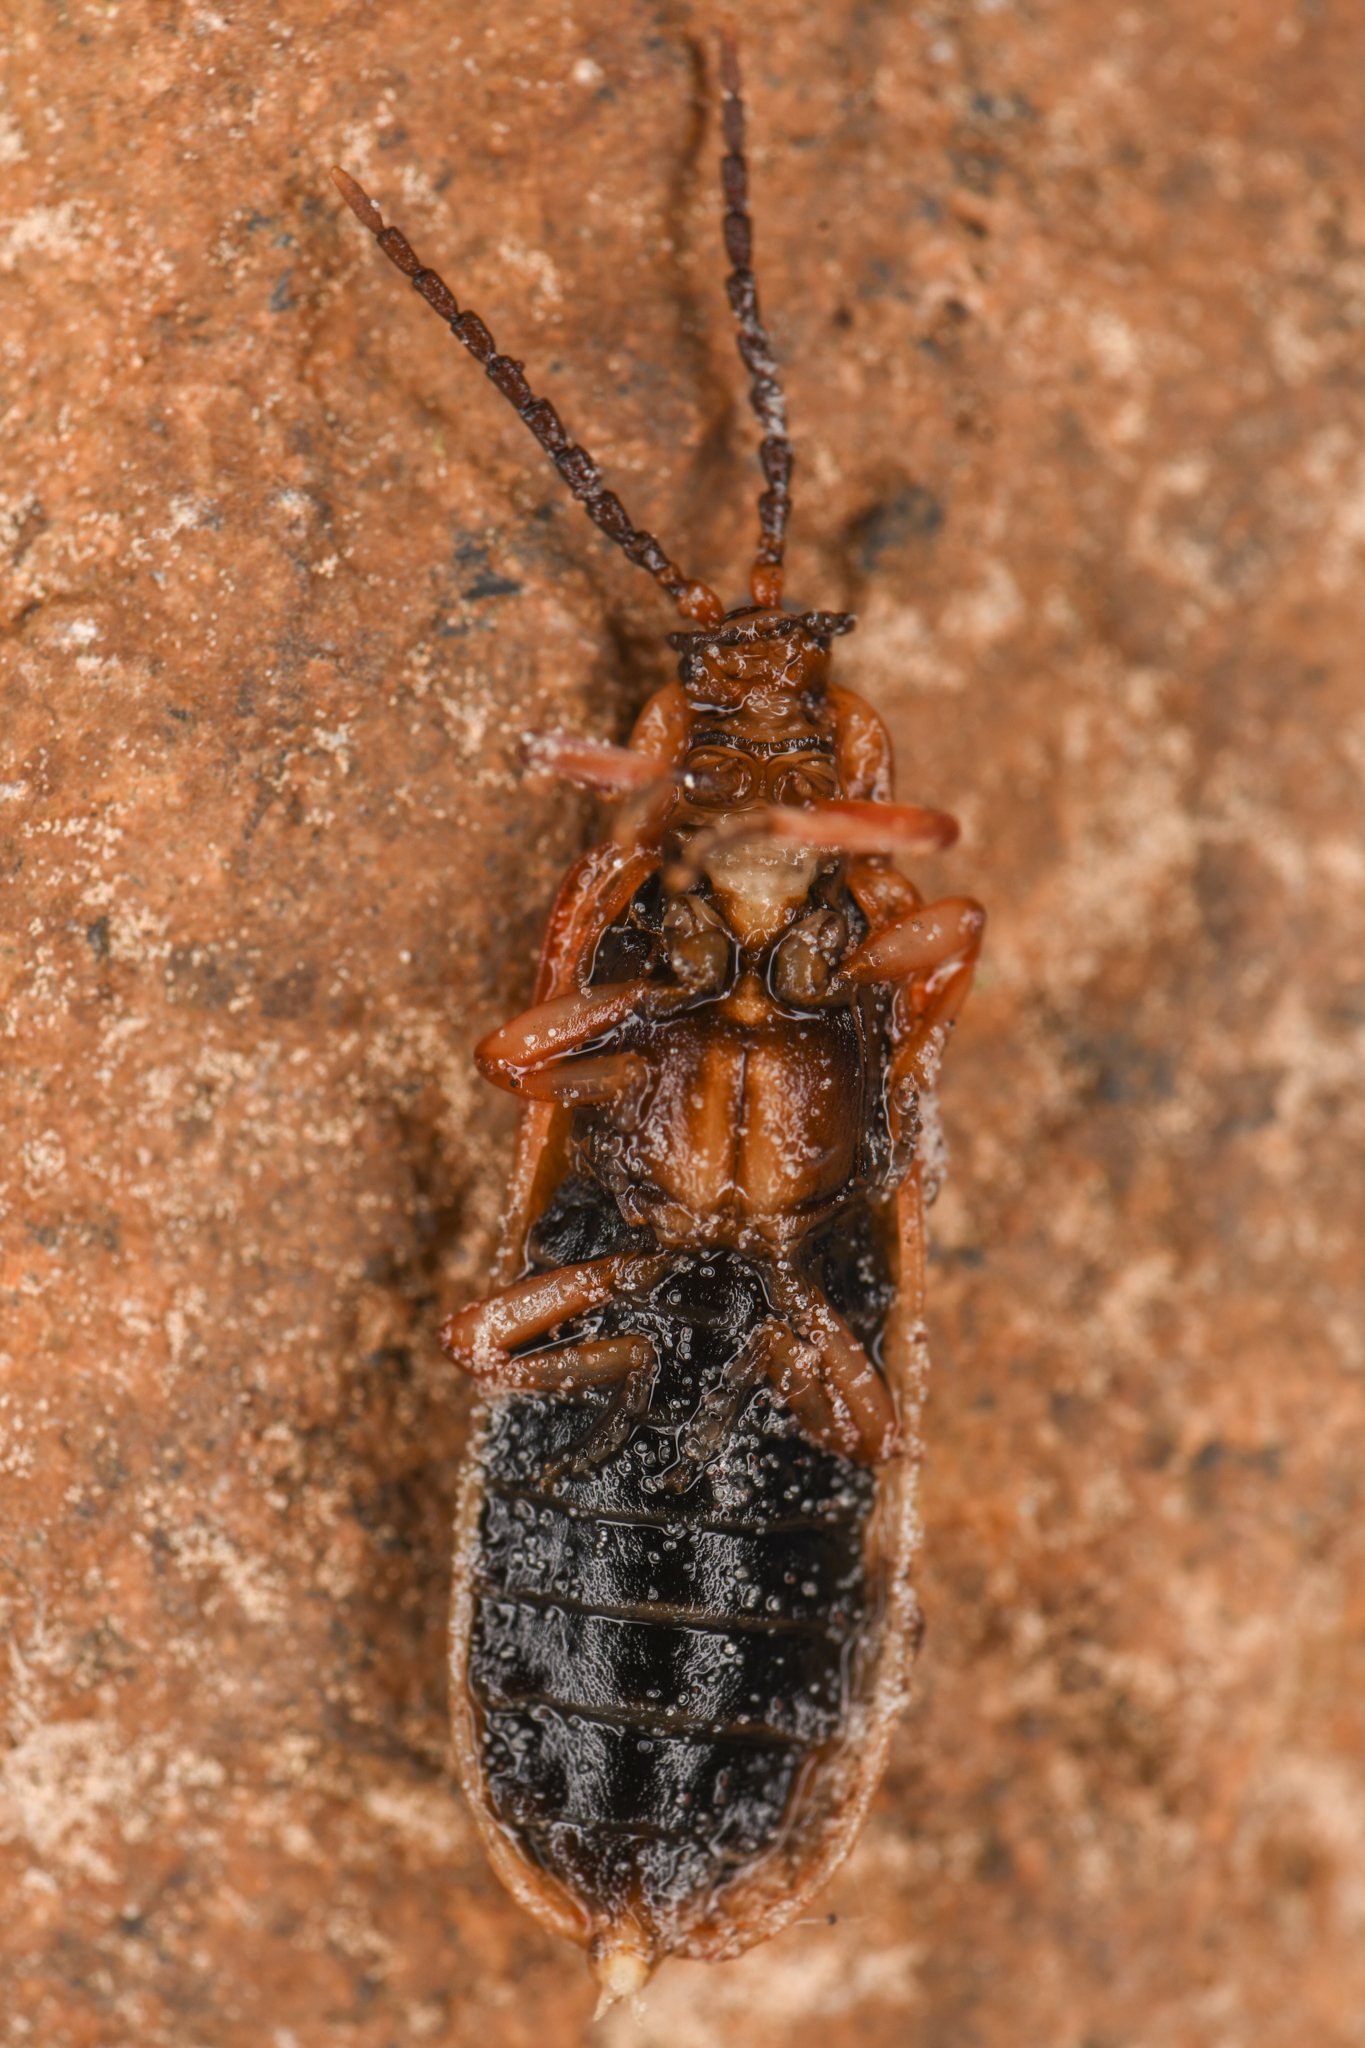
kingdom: Animalia
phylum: Arthropoda
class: Insecta
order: Coleoptera
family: Lycidae
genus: Dictyoptera
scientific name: Dictyoptera simplicipes
